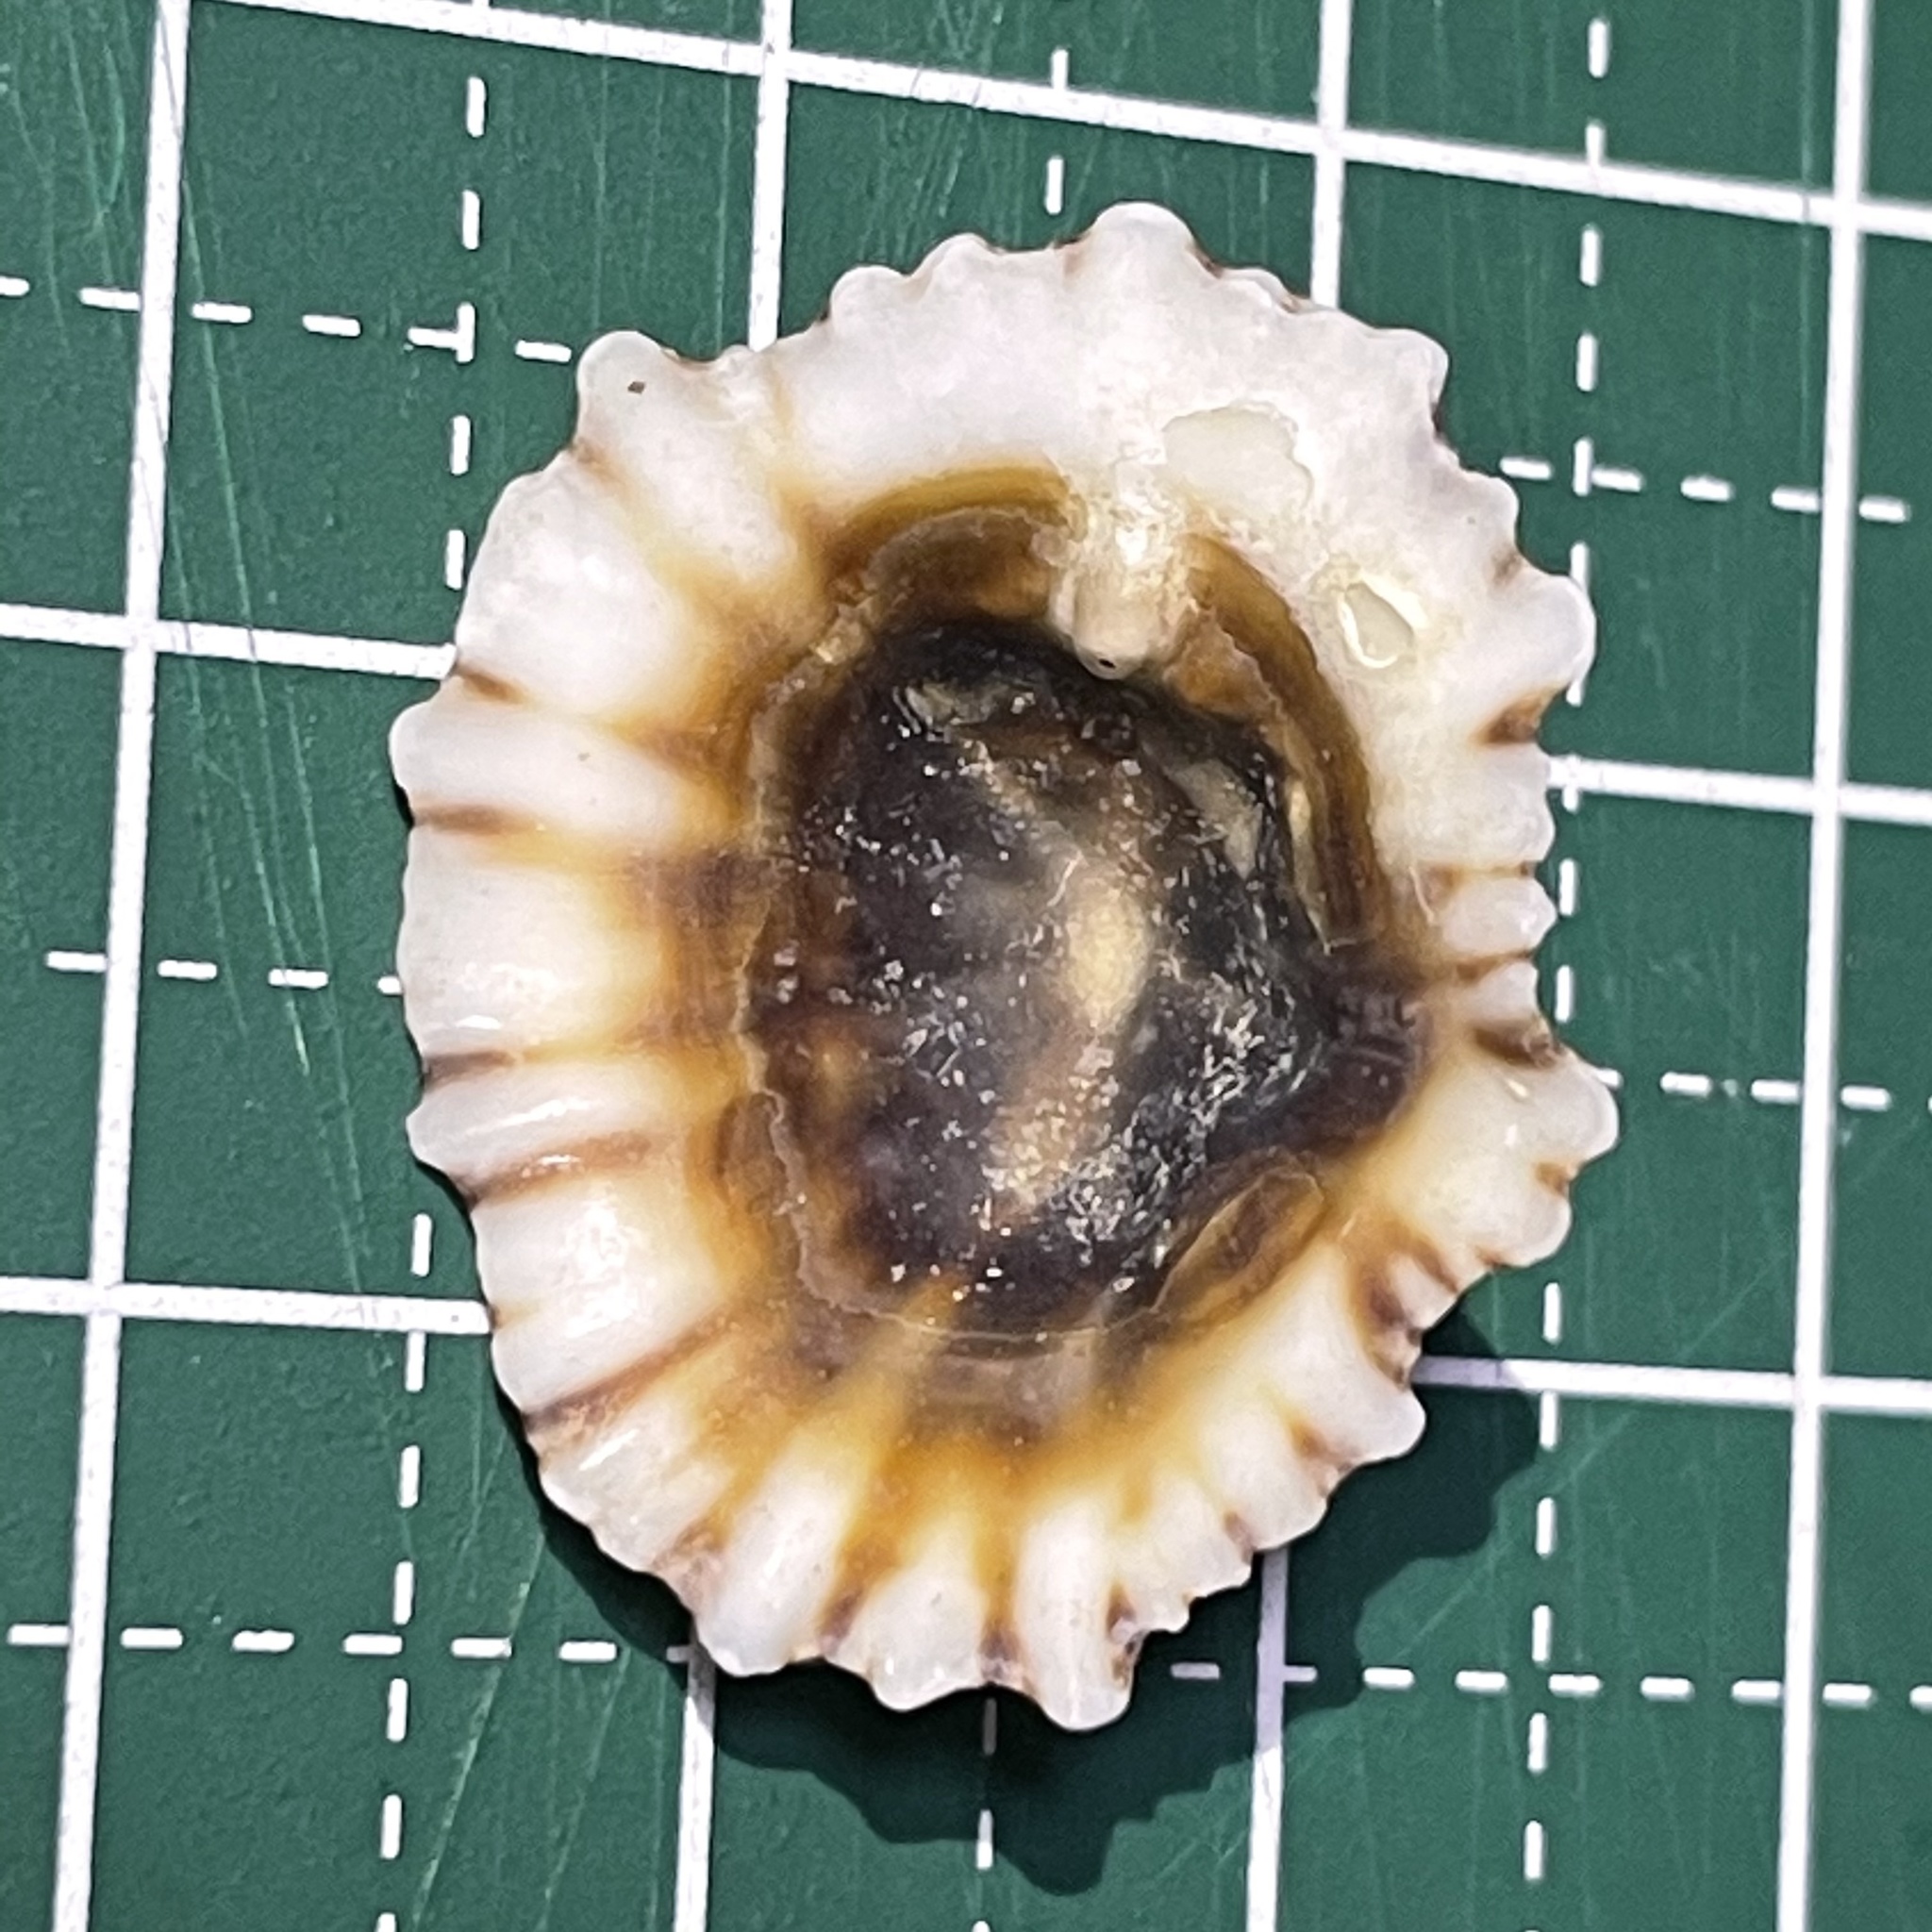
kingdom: Animalia
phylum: Mollusca
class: Gastropoda
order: Siphonariida
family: Siphonariidae
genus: Siphonaria
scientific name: Siphonaria laciniosa
